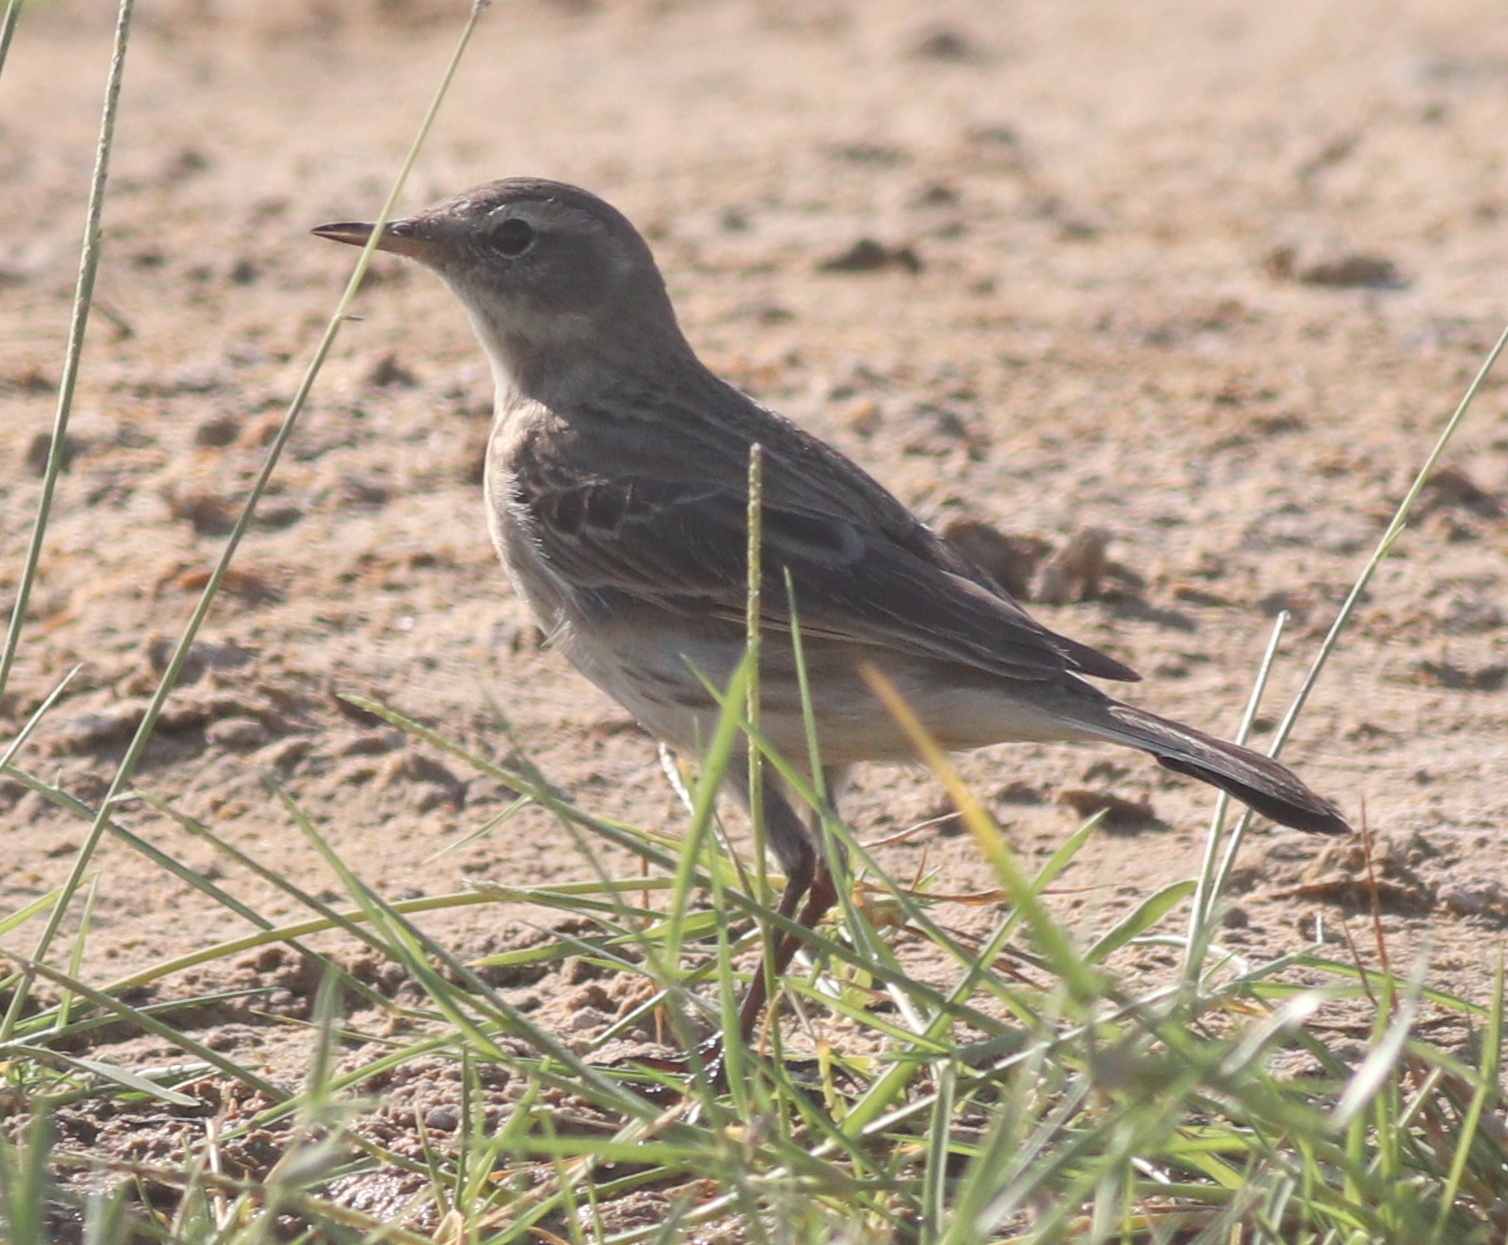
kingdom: Animalia
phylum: Chordata
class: Aves
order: Passeriformes
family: Motacillidae
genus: Anthus
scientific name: Anthus spinoletta
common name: Water pipit
